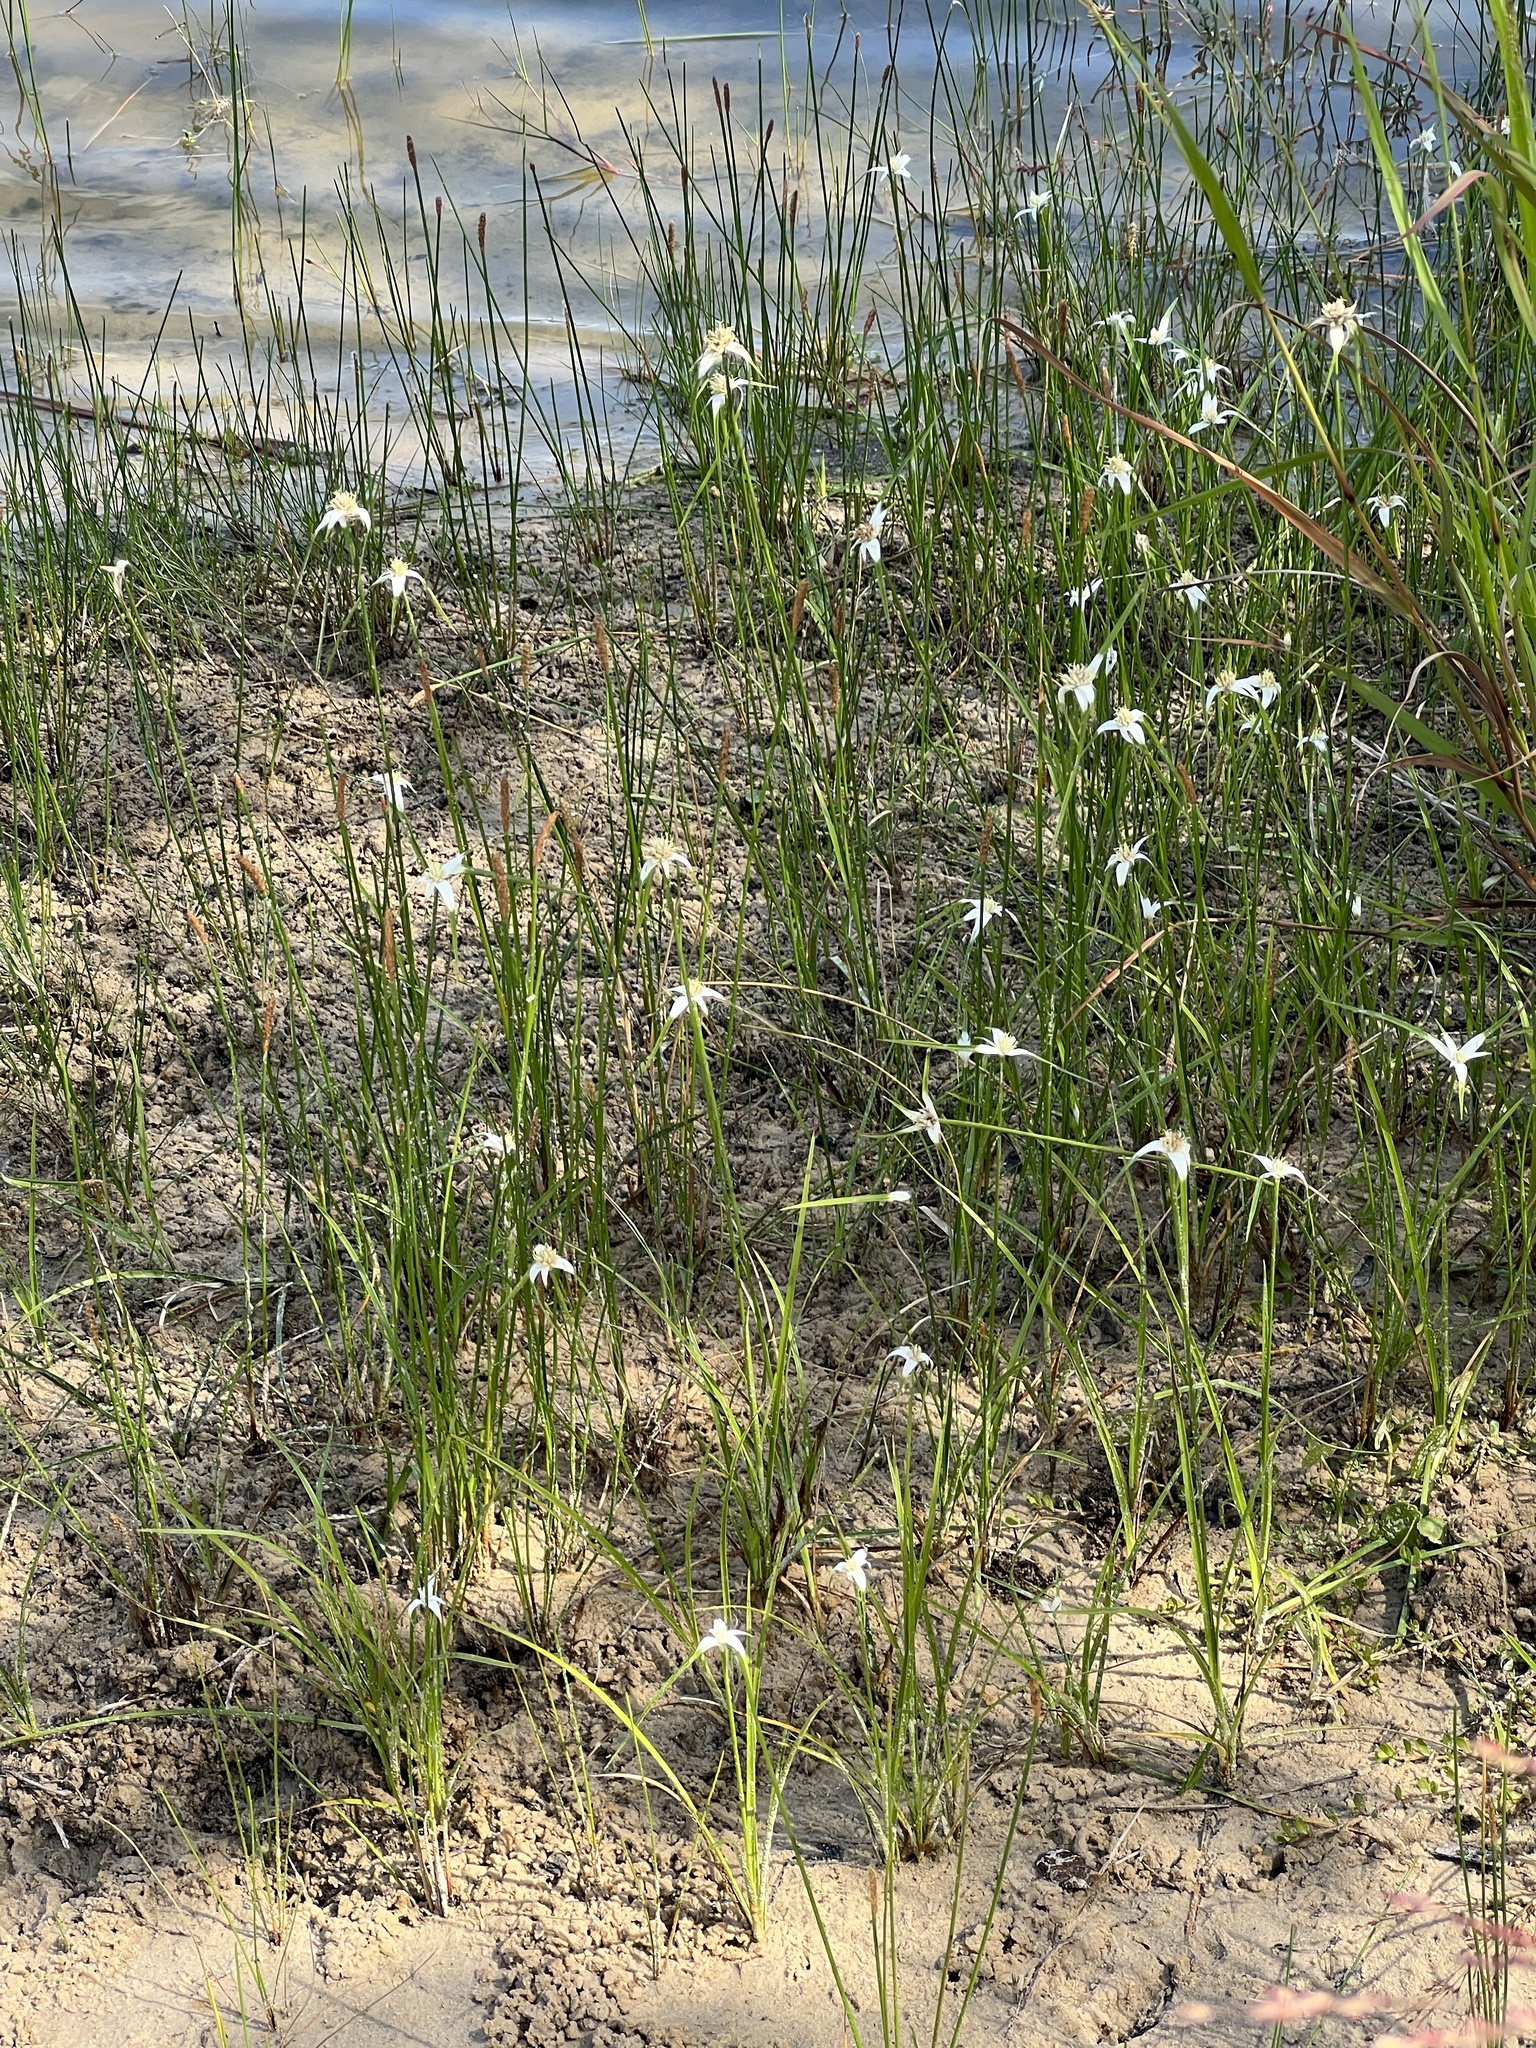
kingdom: Plantae
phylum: Tracheophyta
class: Liliopsida
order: Poales
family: Cyperaceae
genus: Rhynchospora
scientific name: Rhynchospora colorata
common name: Star sedge
